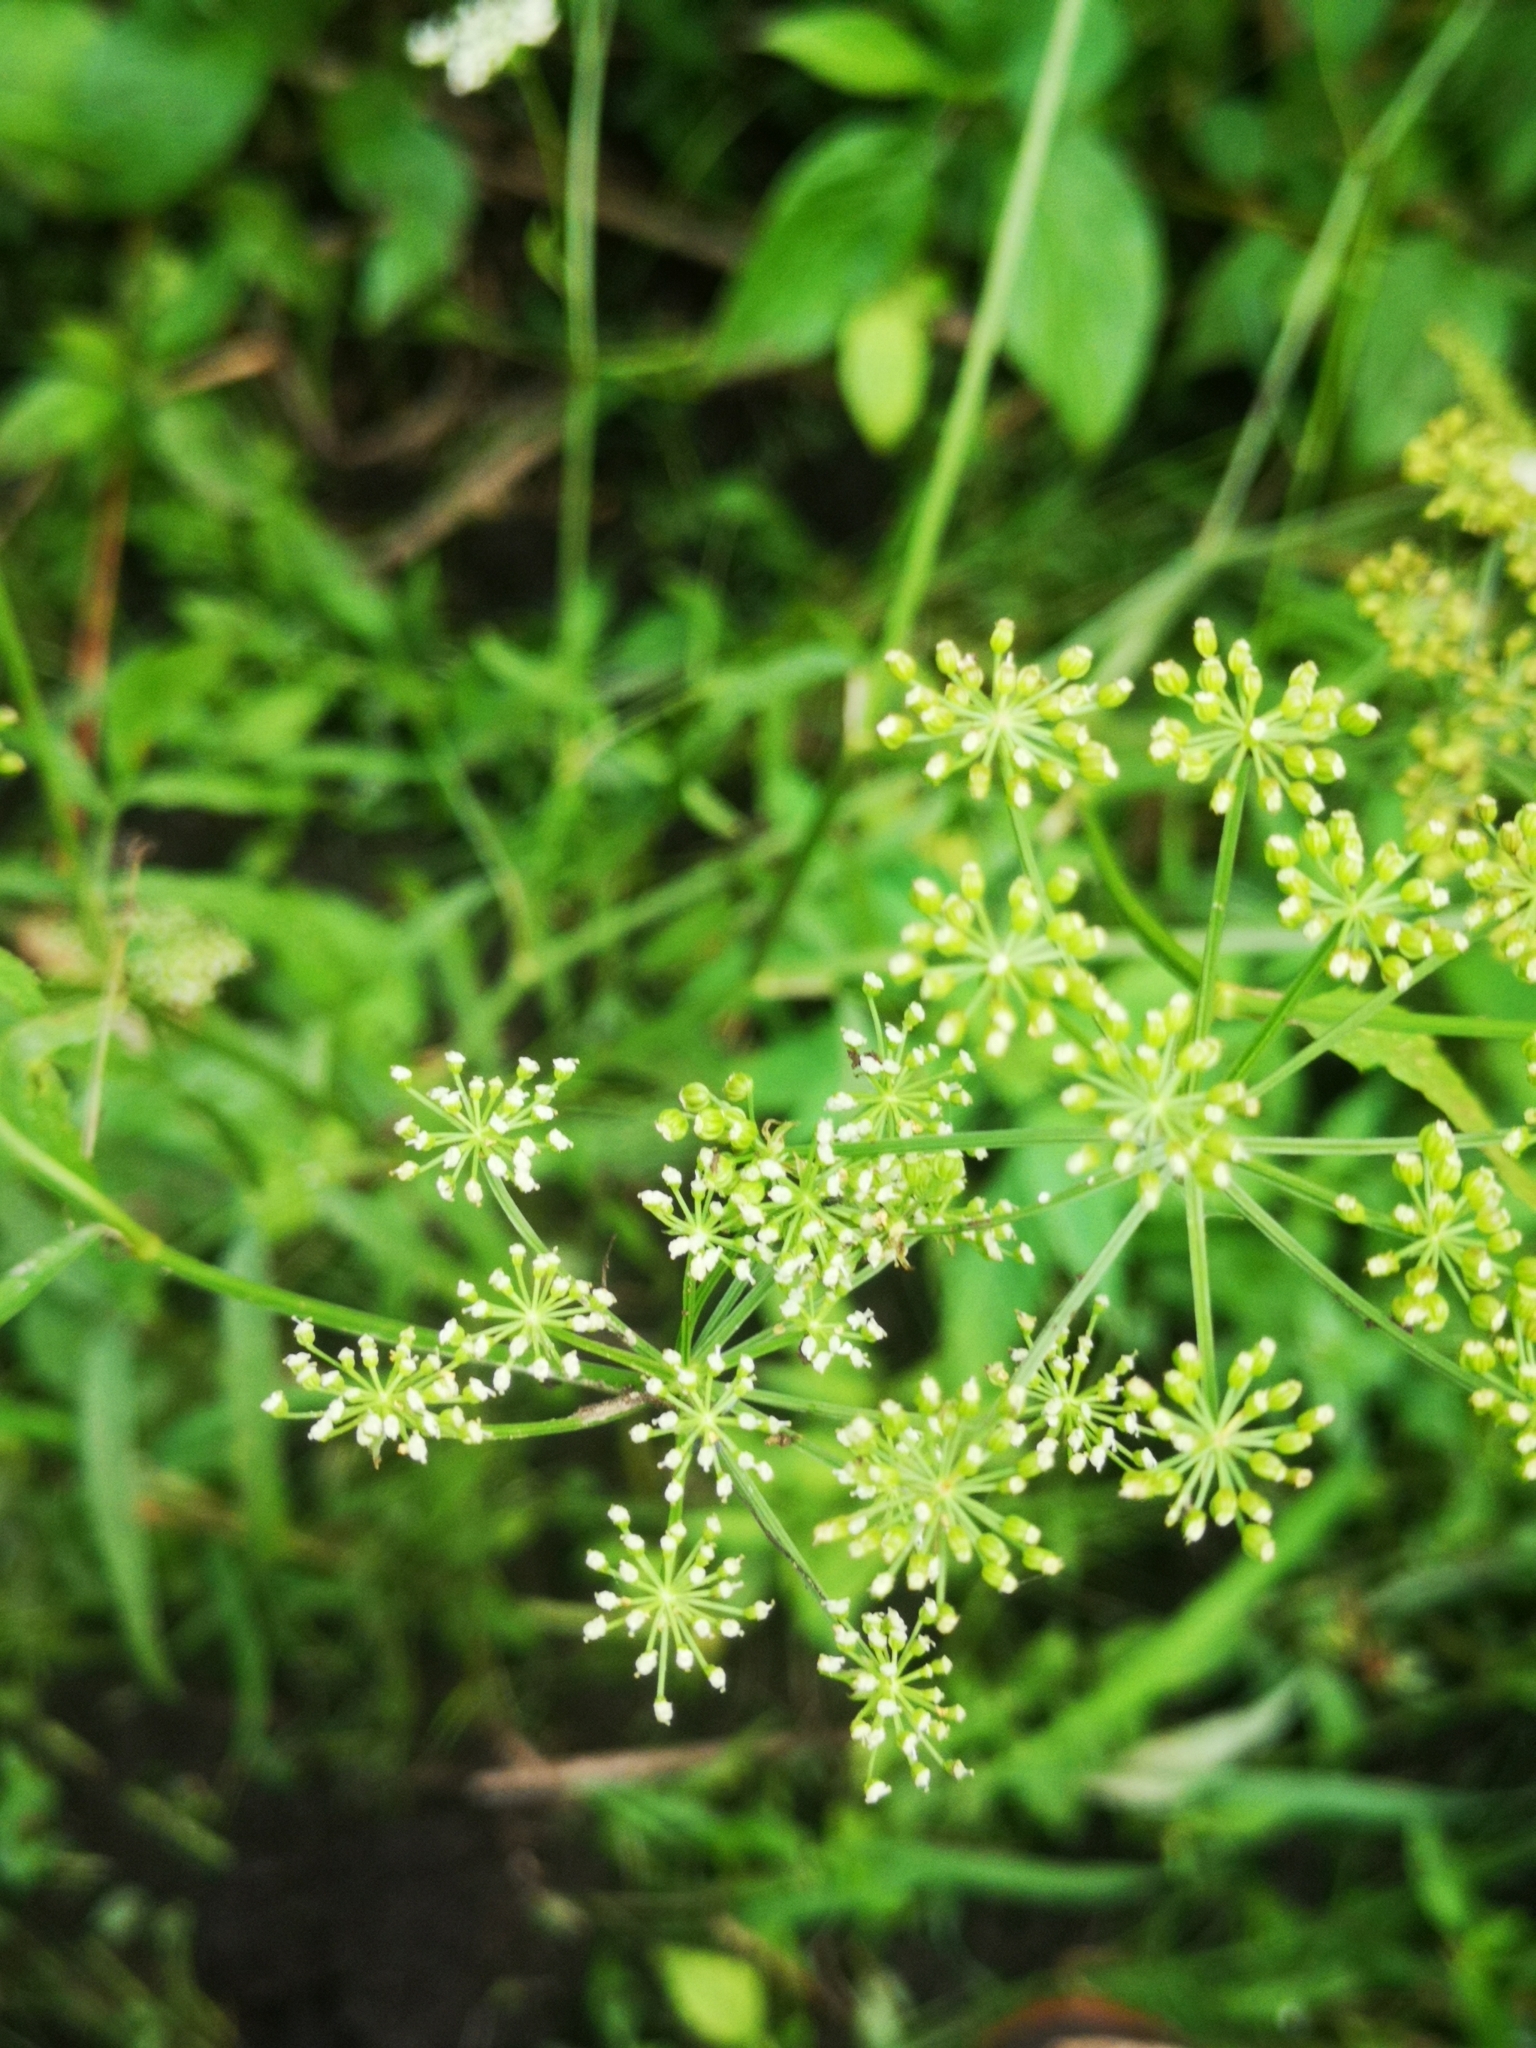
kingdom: Plantae
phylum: Tracheophyta
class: Magnoliopsida
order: Apiales
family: Apiaceae
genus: Sium
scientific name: Sium suave
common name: Hemlock water-parsnip
